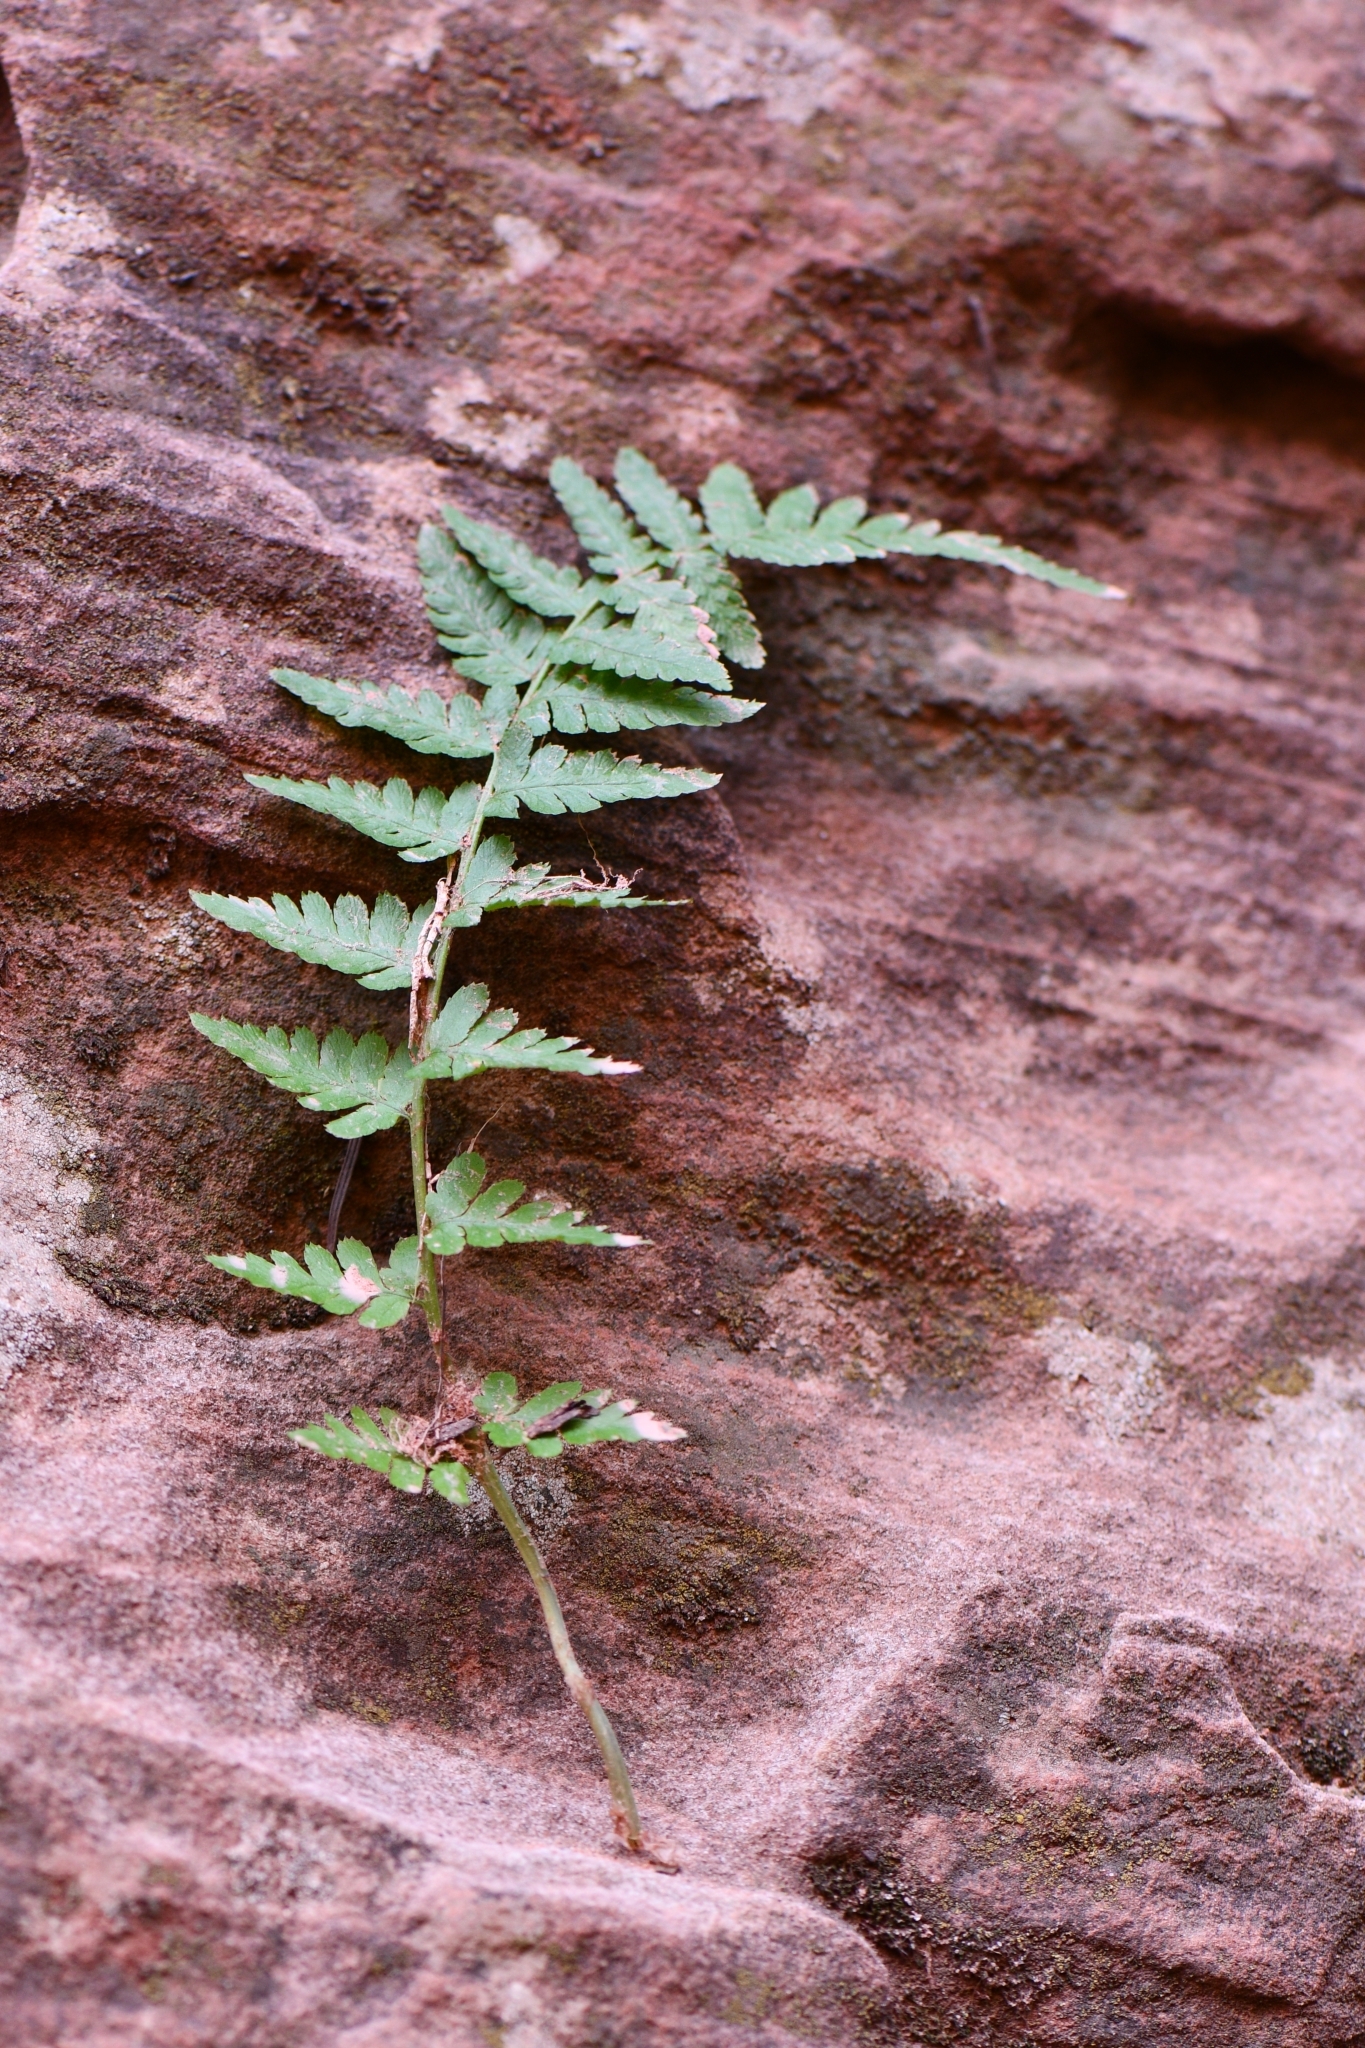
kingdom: Plantae
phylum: Tracheophyta
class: Polypodiopsida
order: Polypodiales
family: Dryopteridaceae
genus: Dryopteris
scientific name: Dryopteris filix-mas
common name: Male fern
